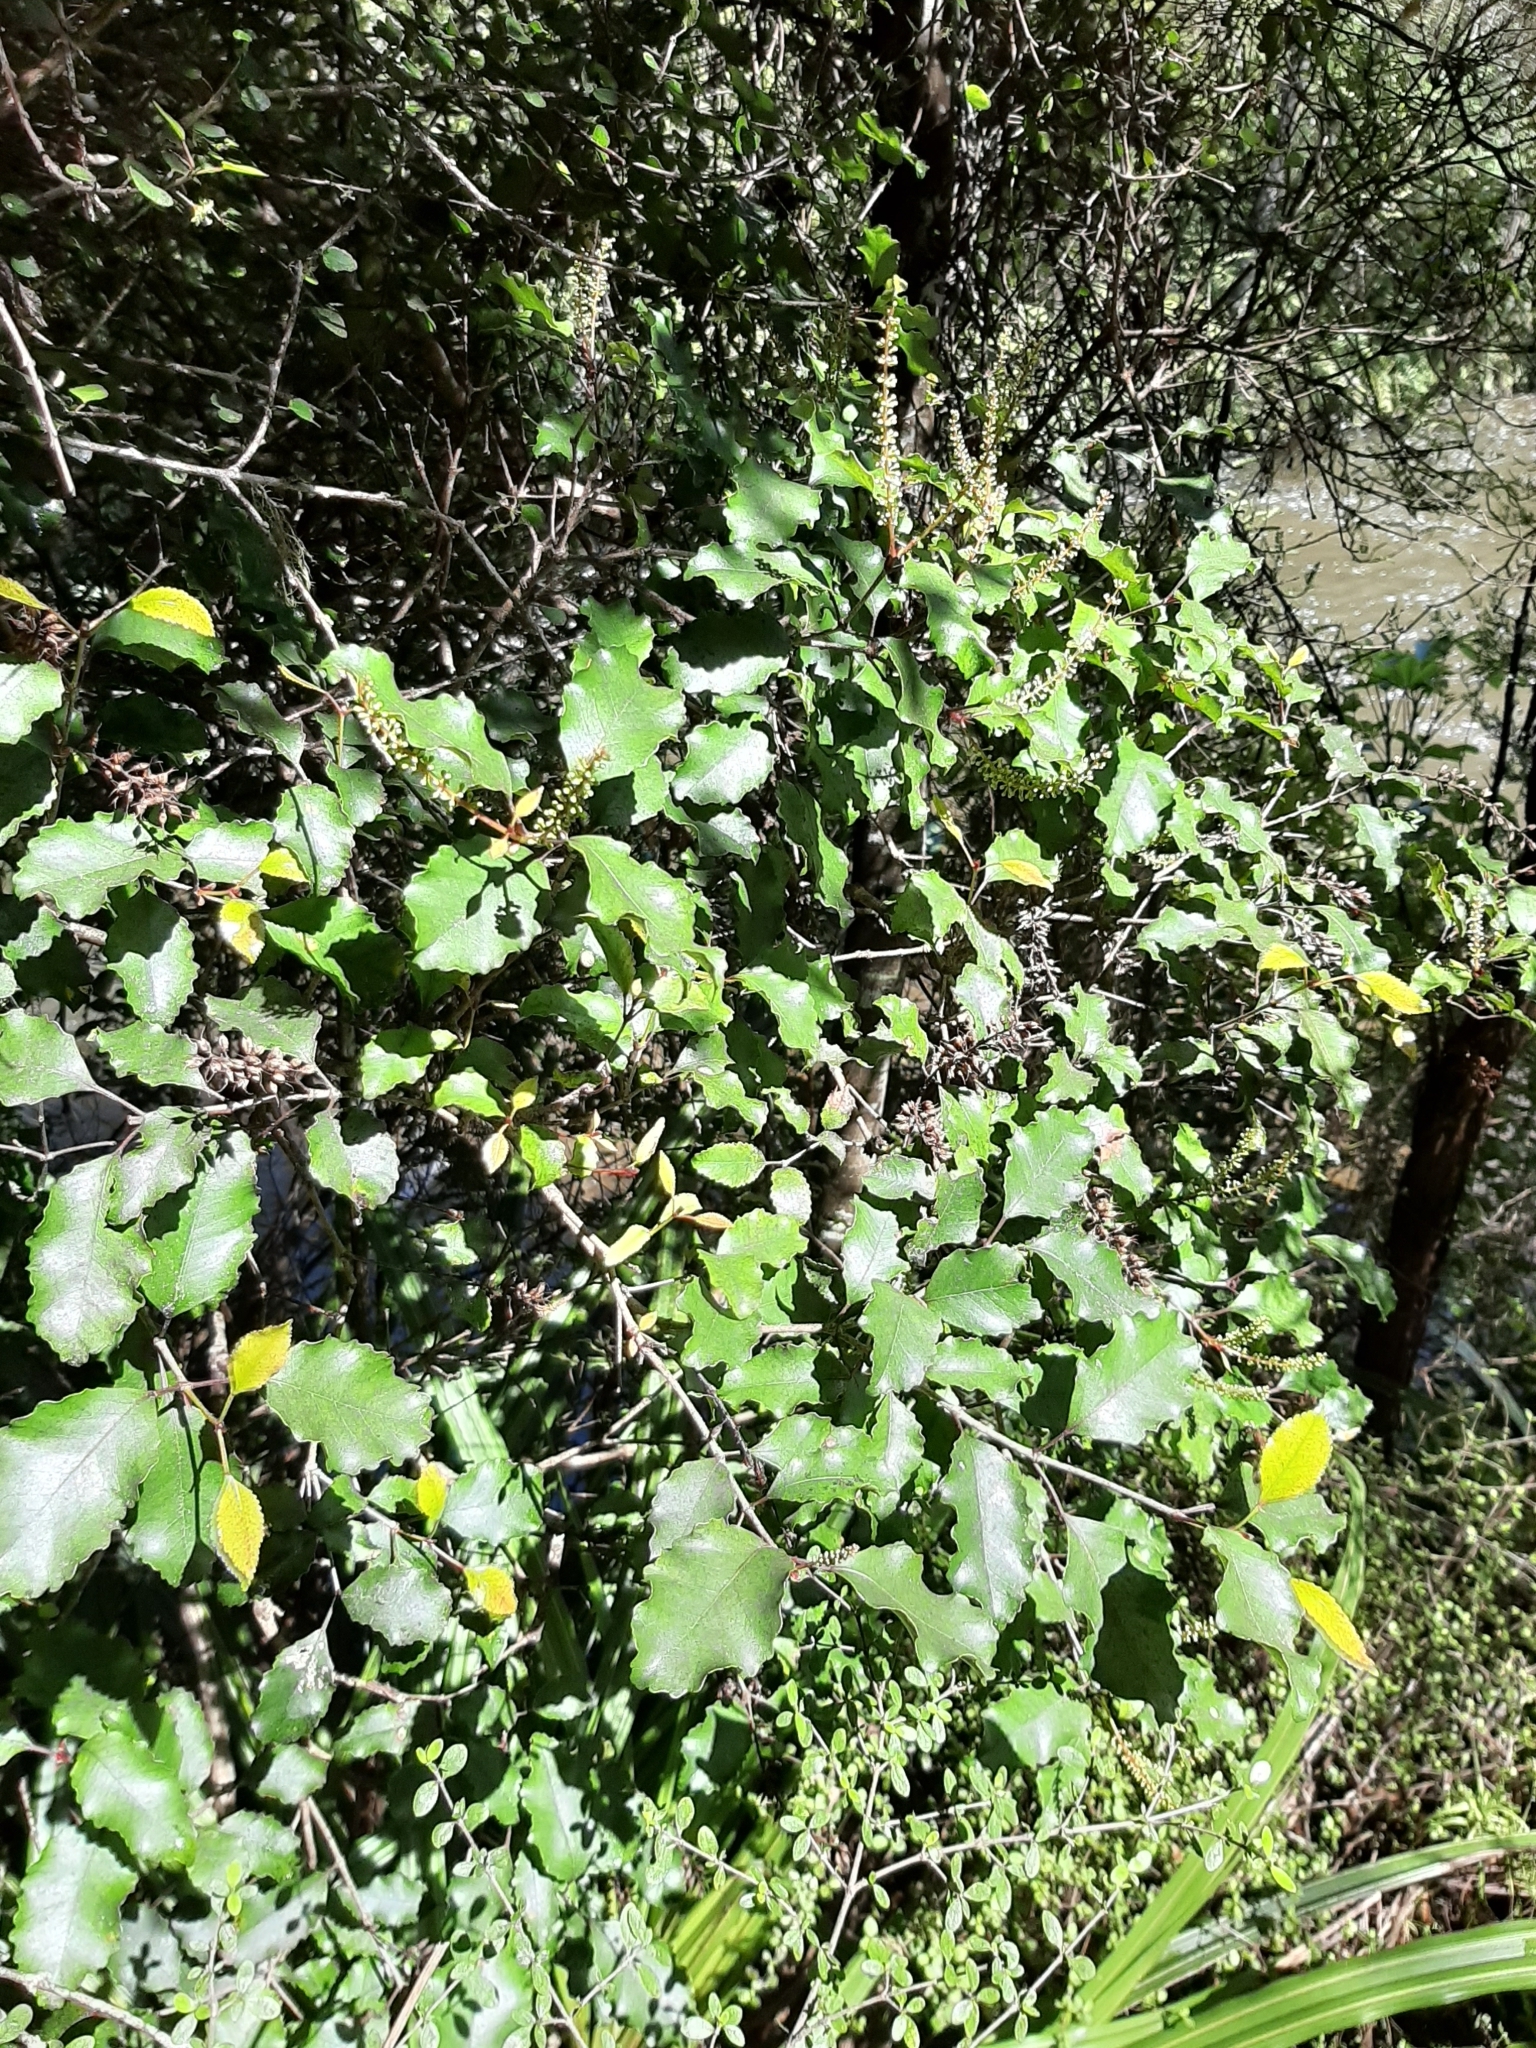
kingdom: Plantae
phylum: Tracheophyta
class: Magnoliopsida
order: Oxalidales
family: Cunoniaceae
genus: Pterophylla
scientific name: Pterophylla racemosa
